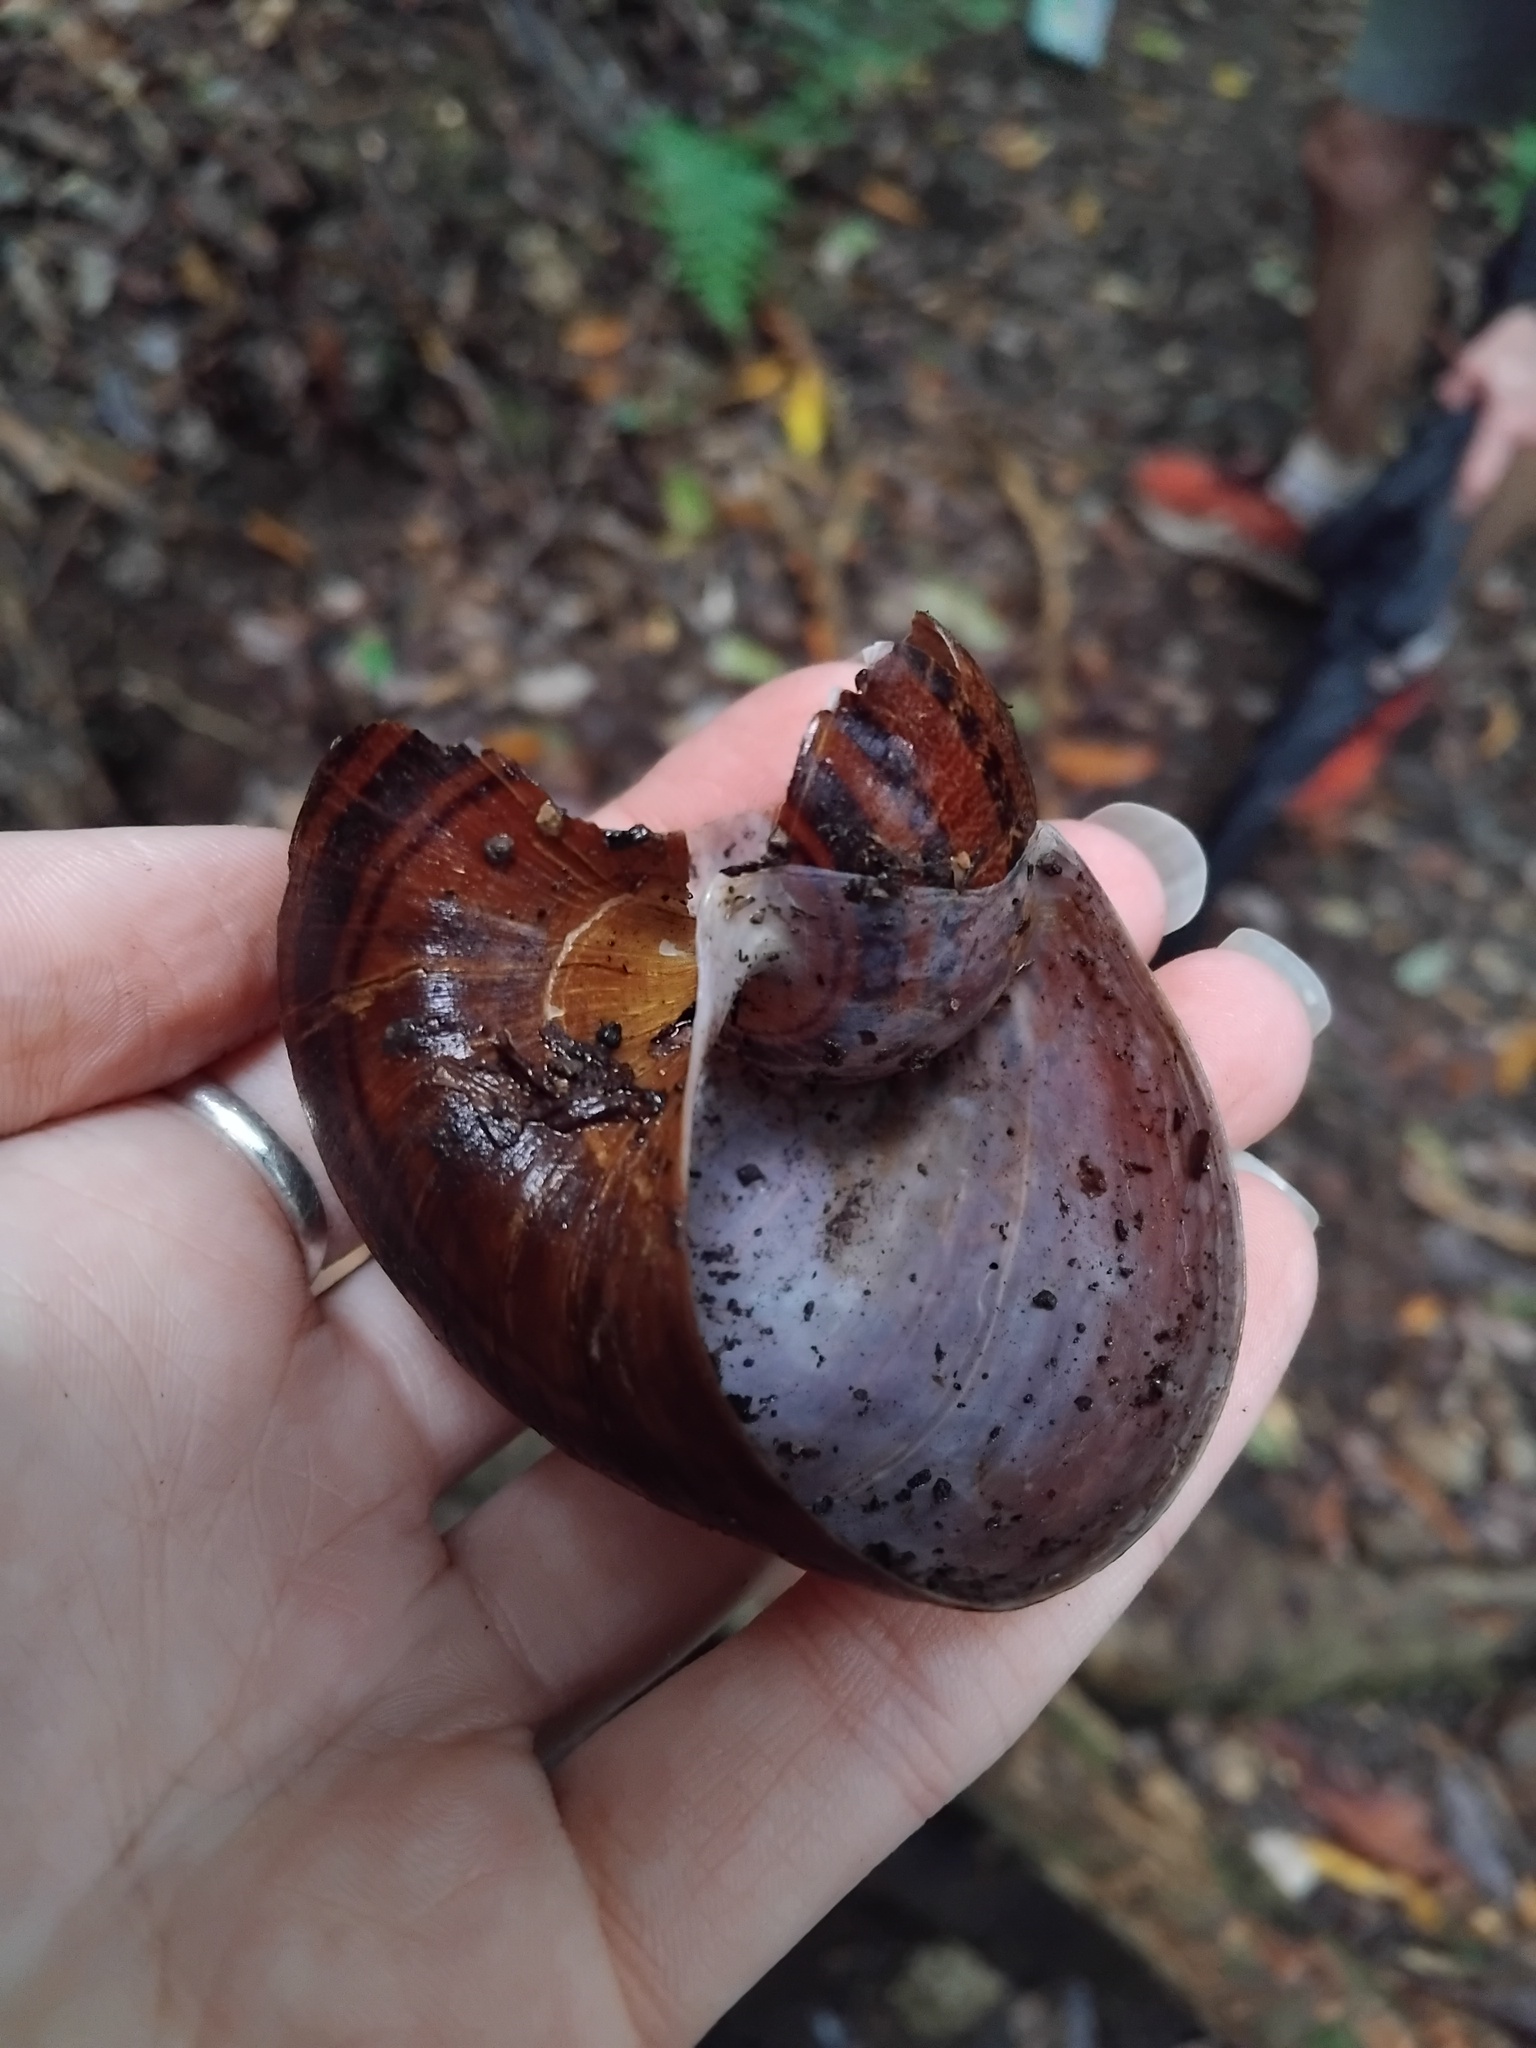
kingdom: Animalia
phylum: Mollusca
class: Gastropoda
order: Stylommatophora
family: Caryodidae
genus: Hedleyella
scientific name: Hedleyella falconeri
